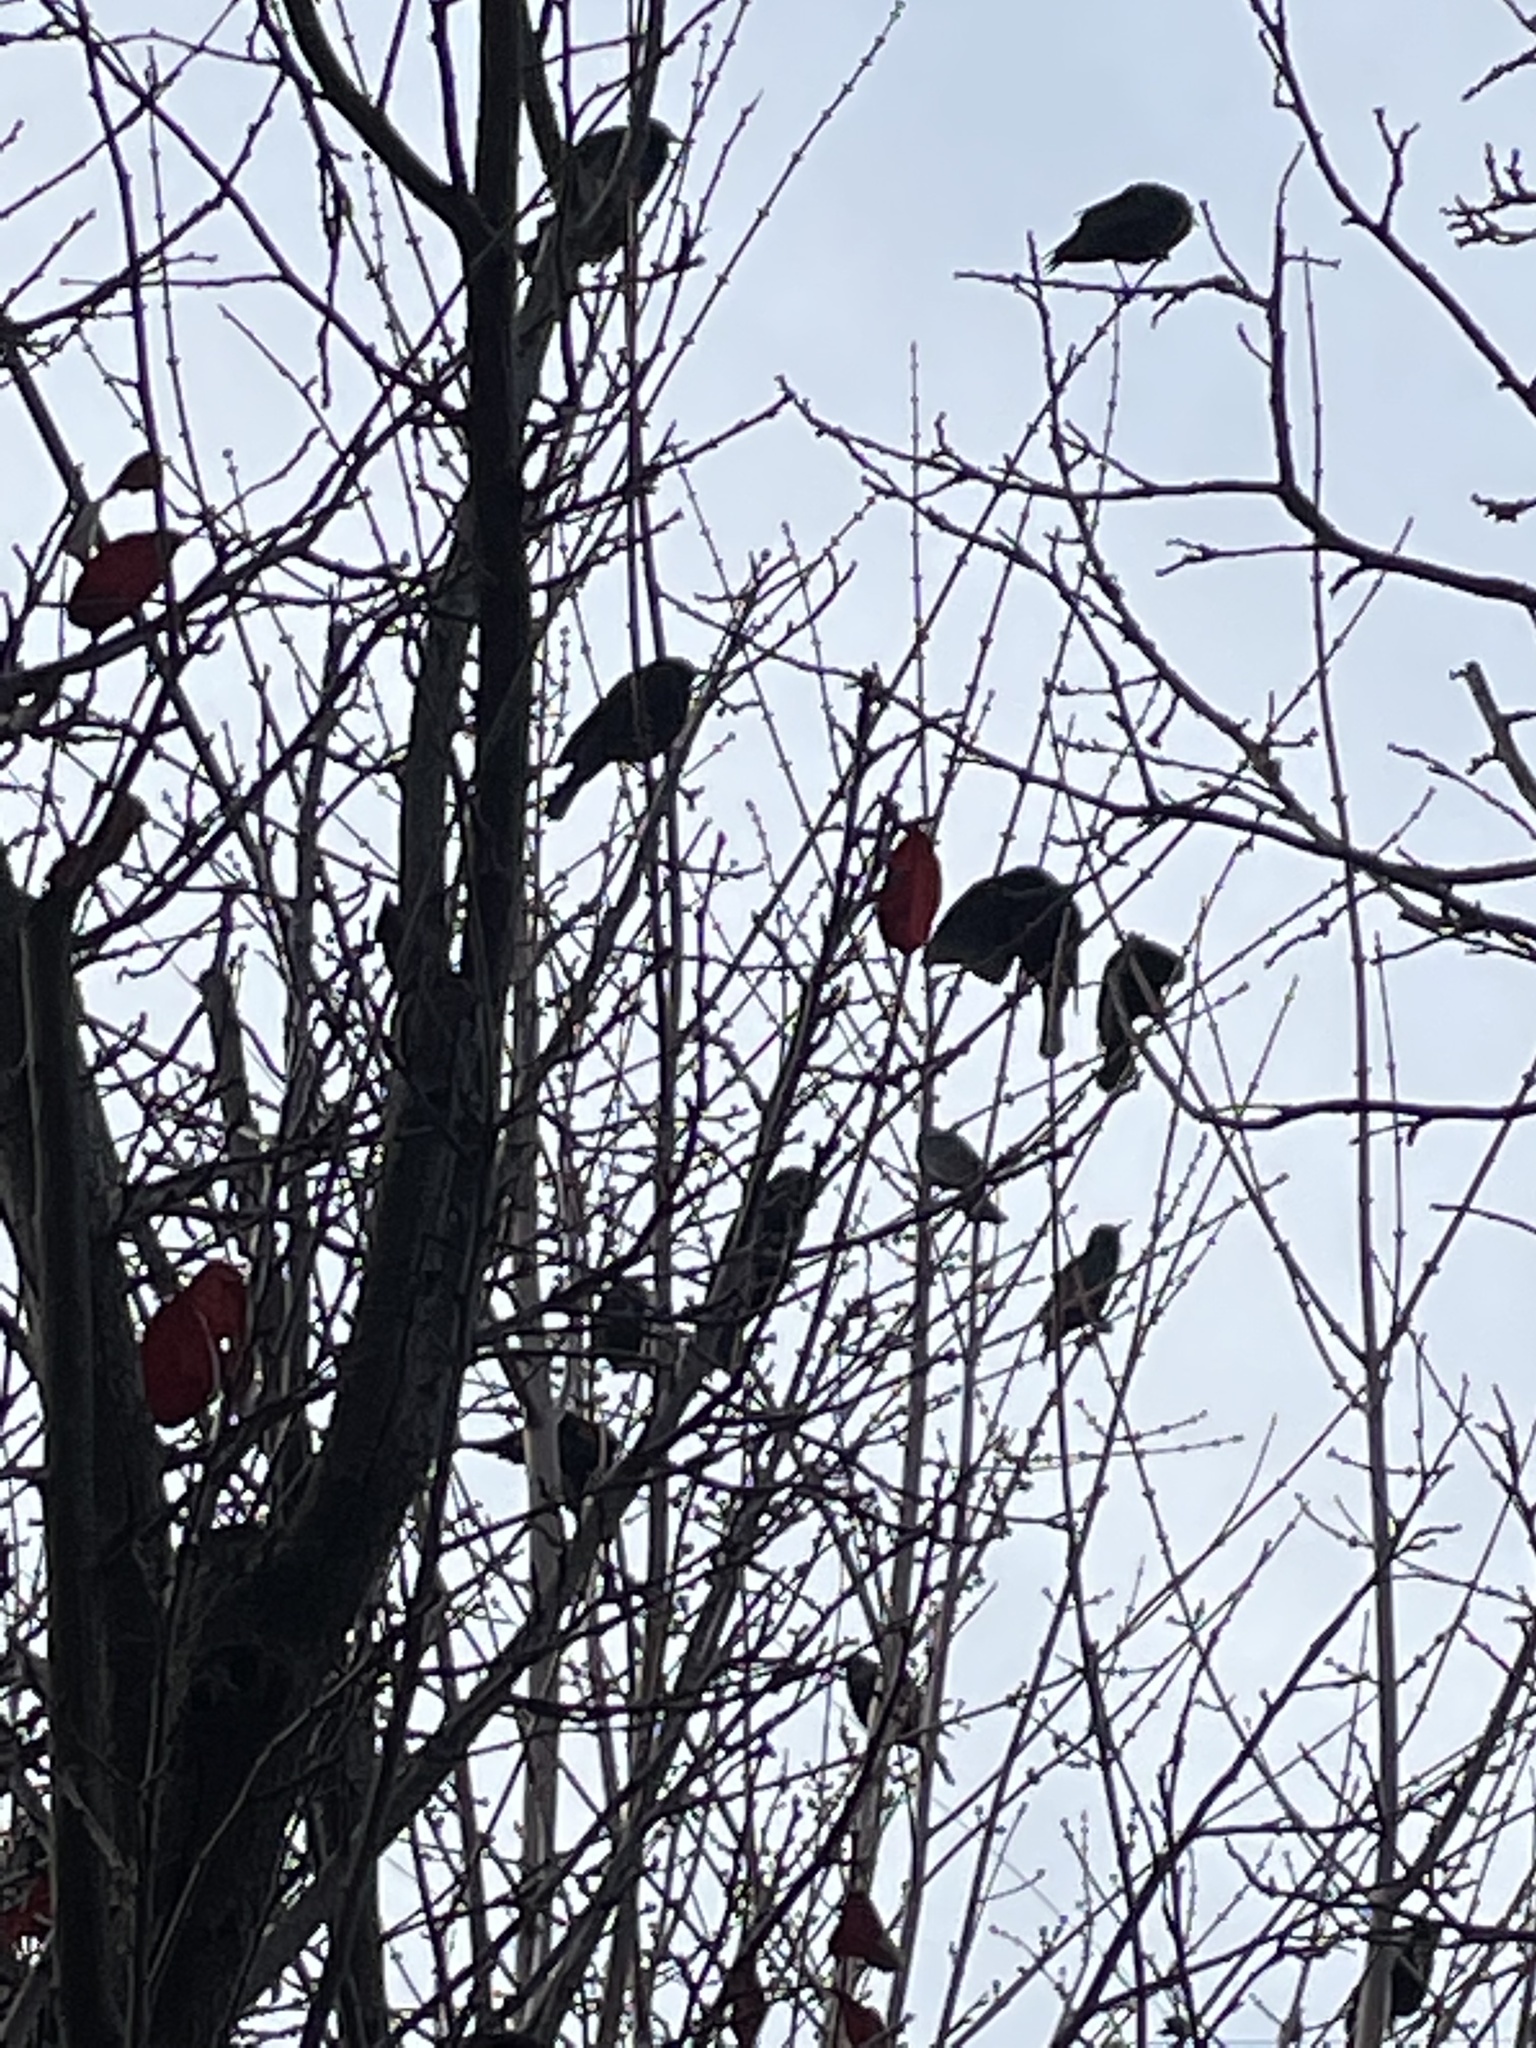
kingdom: Animalia
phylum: Chordata
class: Aves
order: Passeriformes
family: Icteridae
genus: Agelaius
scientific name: Agelaius phoeniceus
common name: Red-winged blackbird
